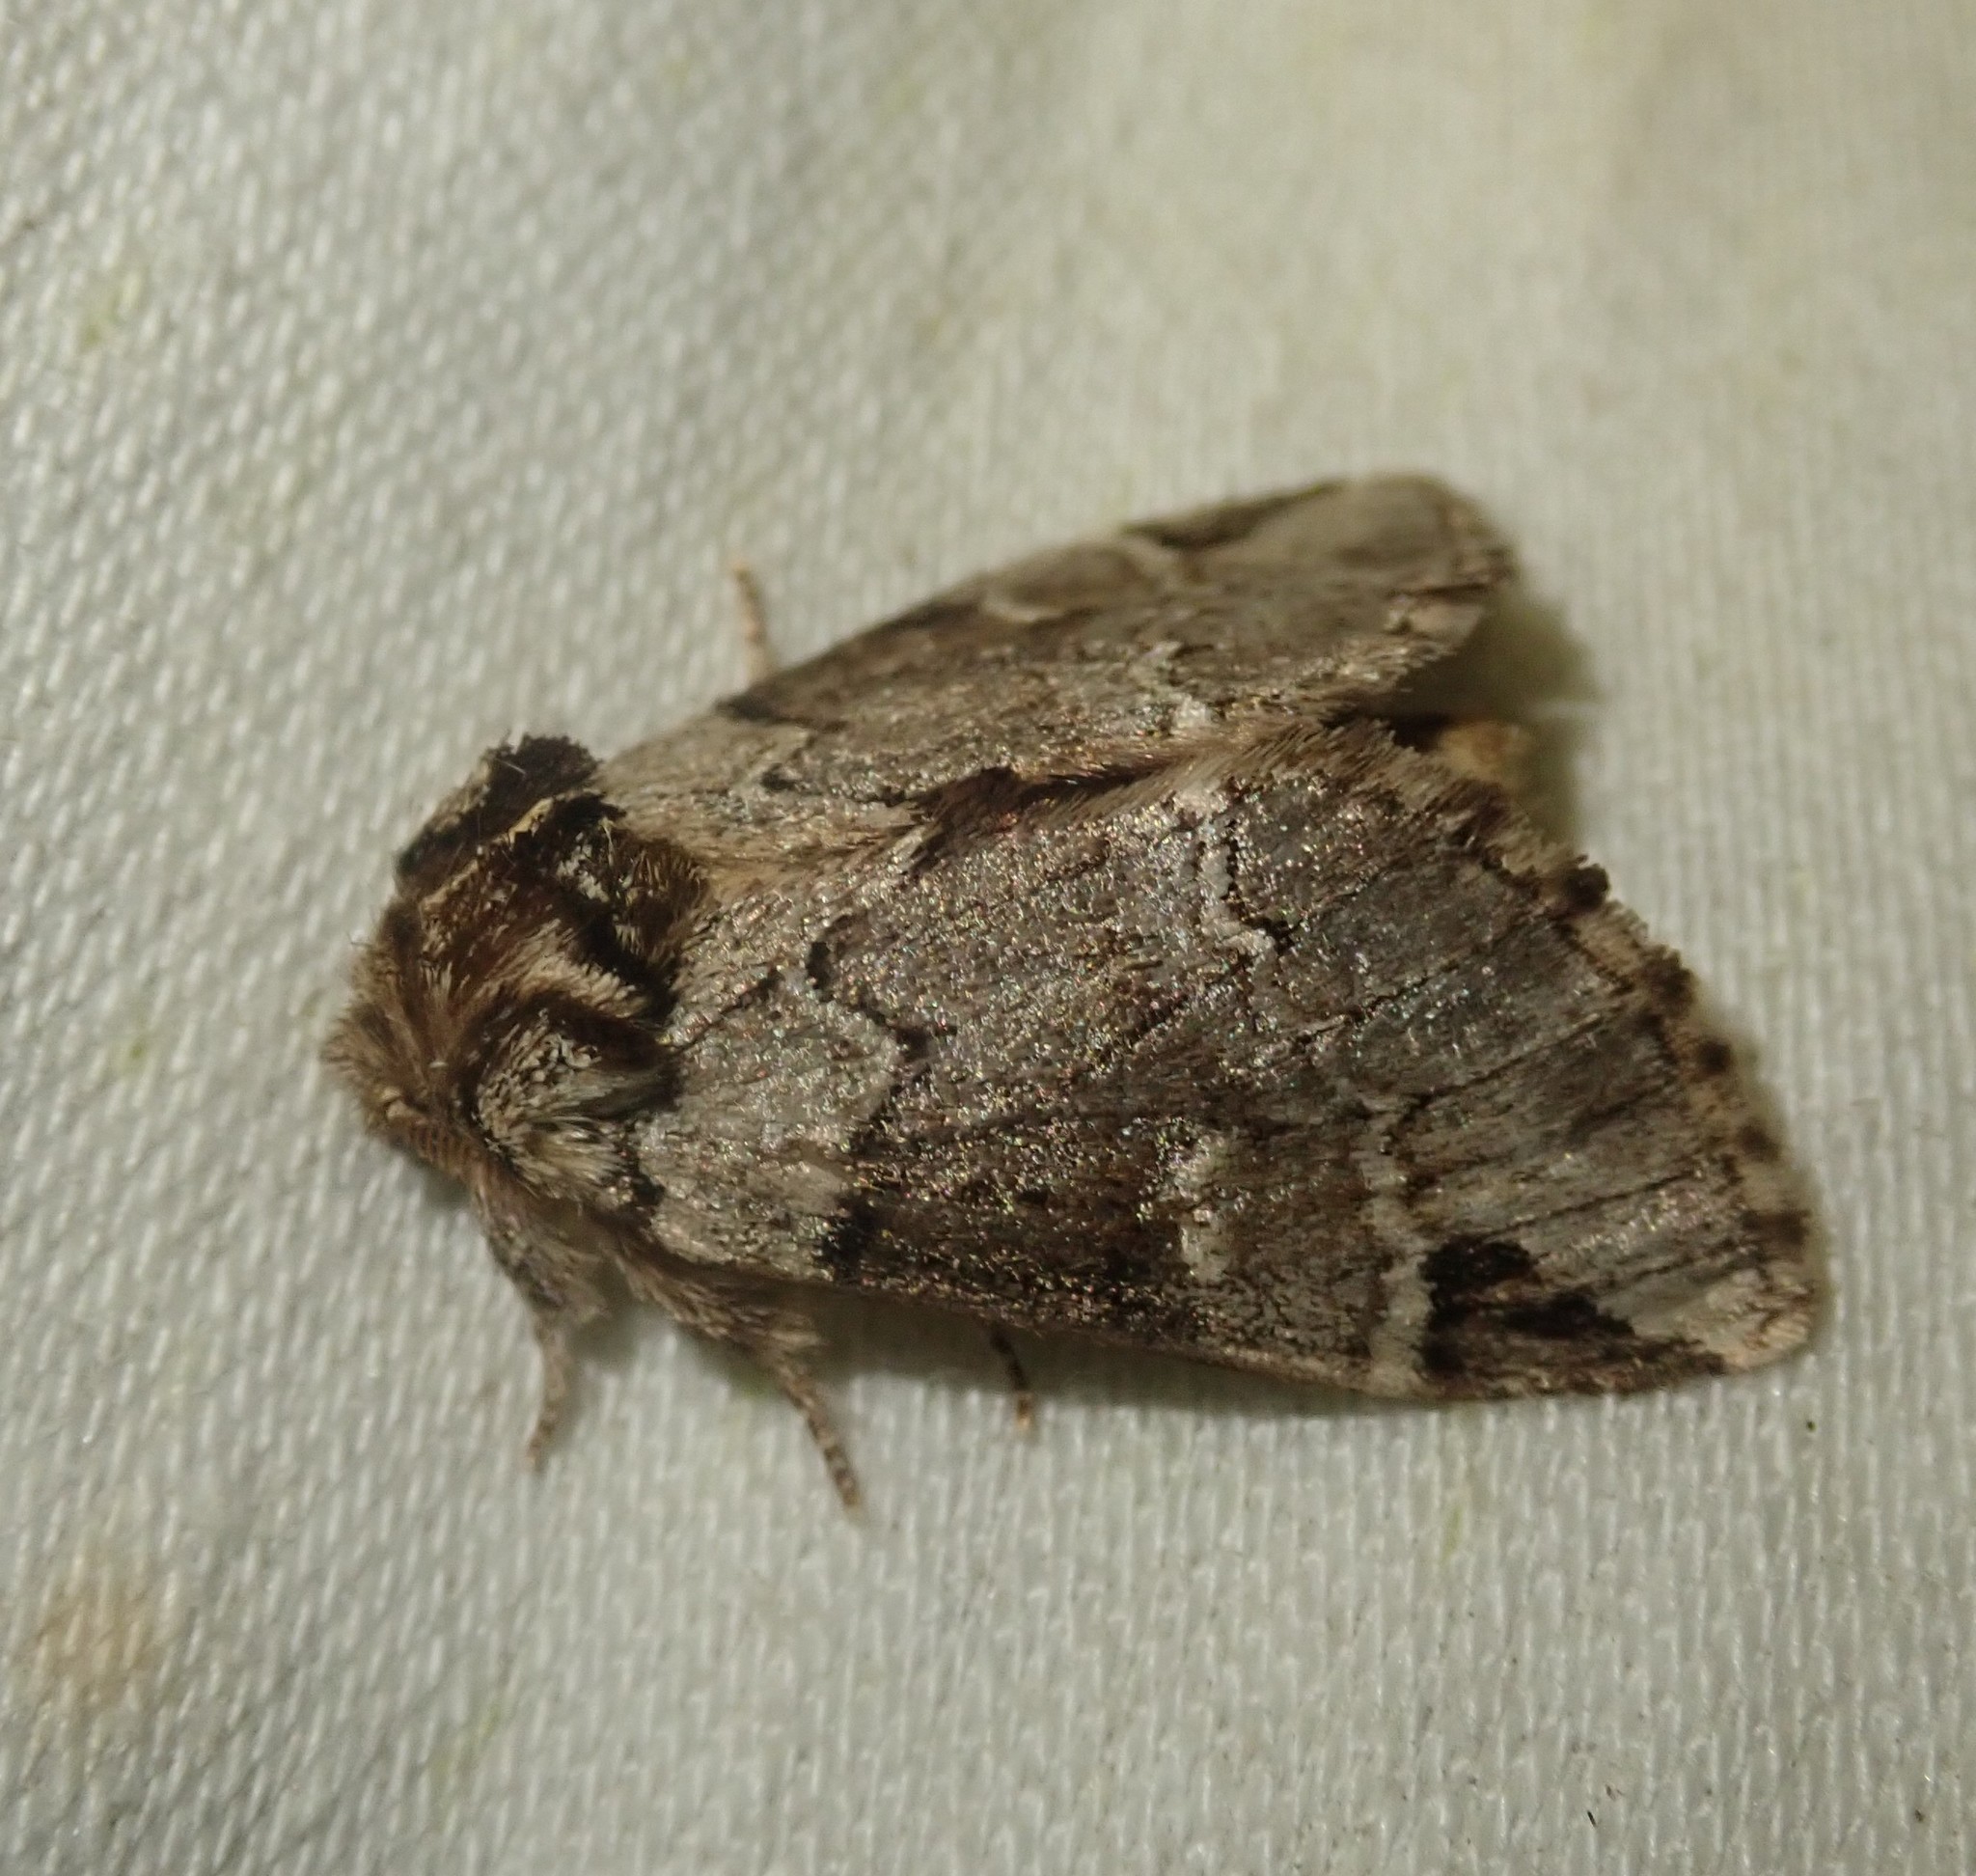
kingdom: Animalia
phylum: Arthropoda
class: Insecta
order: Lepidoptera
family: Notodontidae
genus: Drymonia
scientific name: Drymonia obliterata
